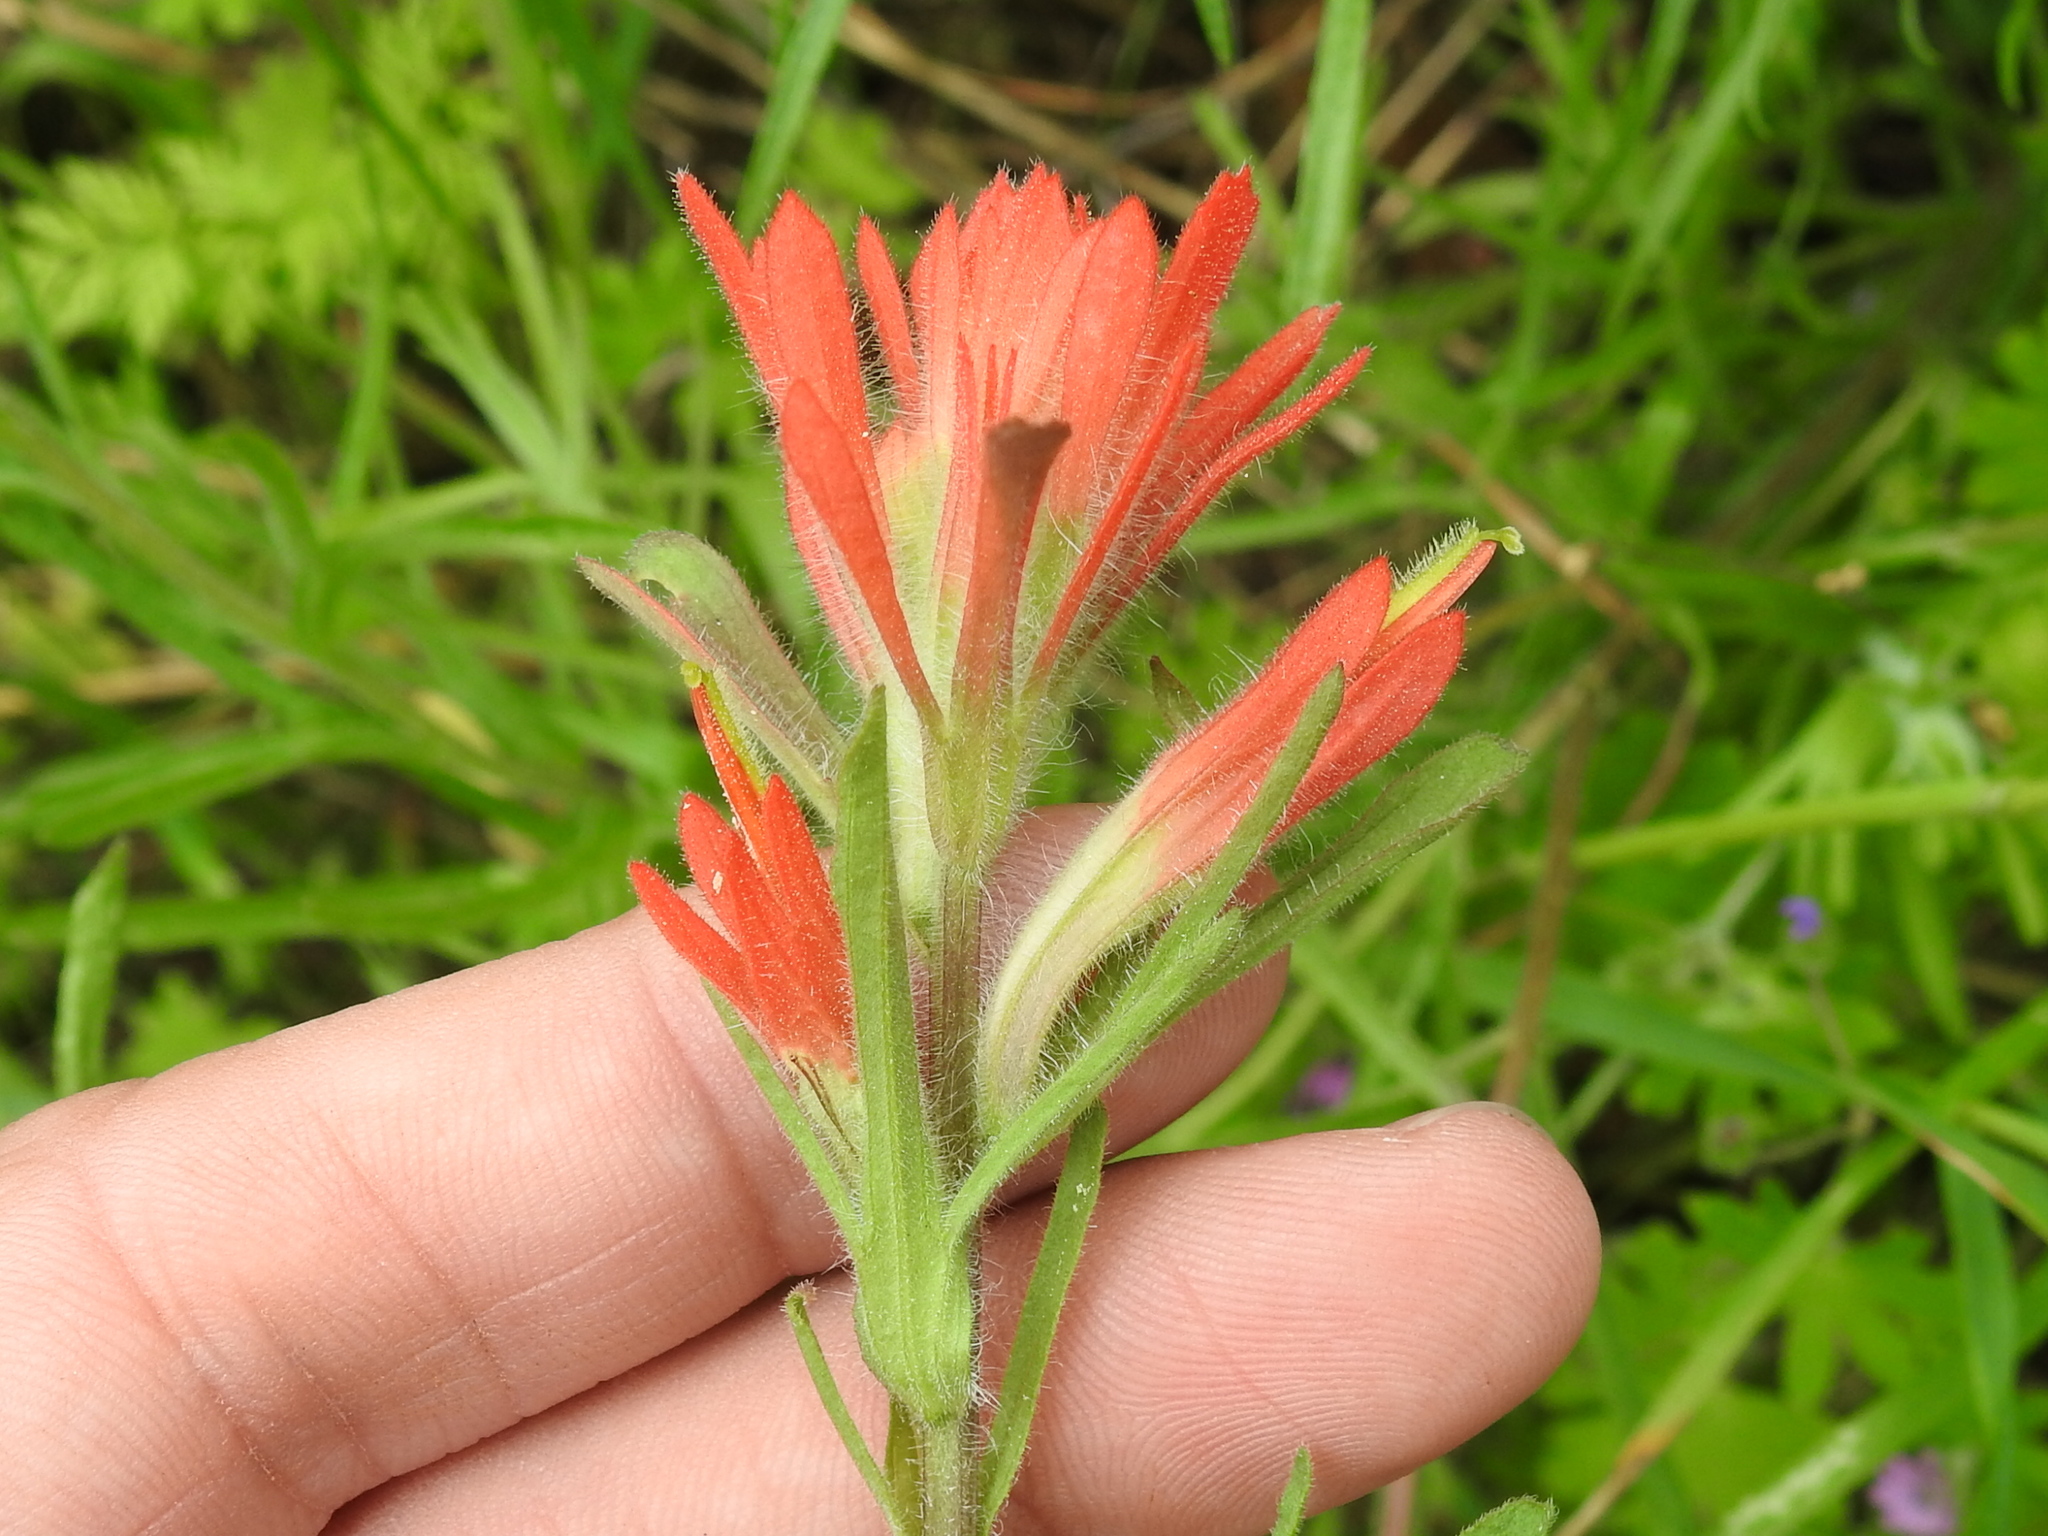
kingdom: Plantae
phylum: Tracheophyta
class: Magnoliopsida
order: Lamiales
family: Orobanchaceae
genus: Castilleja
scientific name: Castilleja affinis
